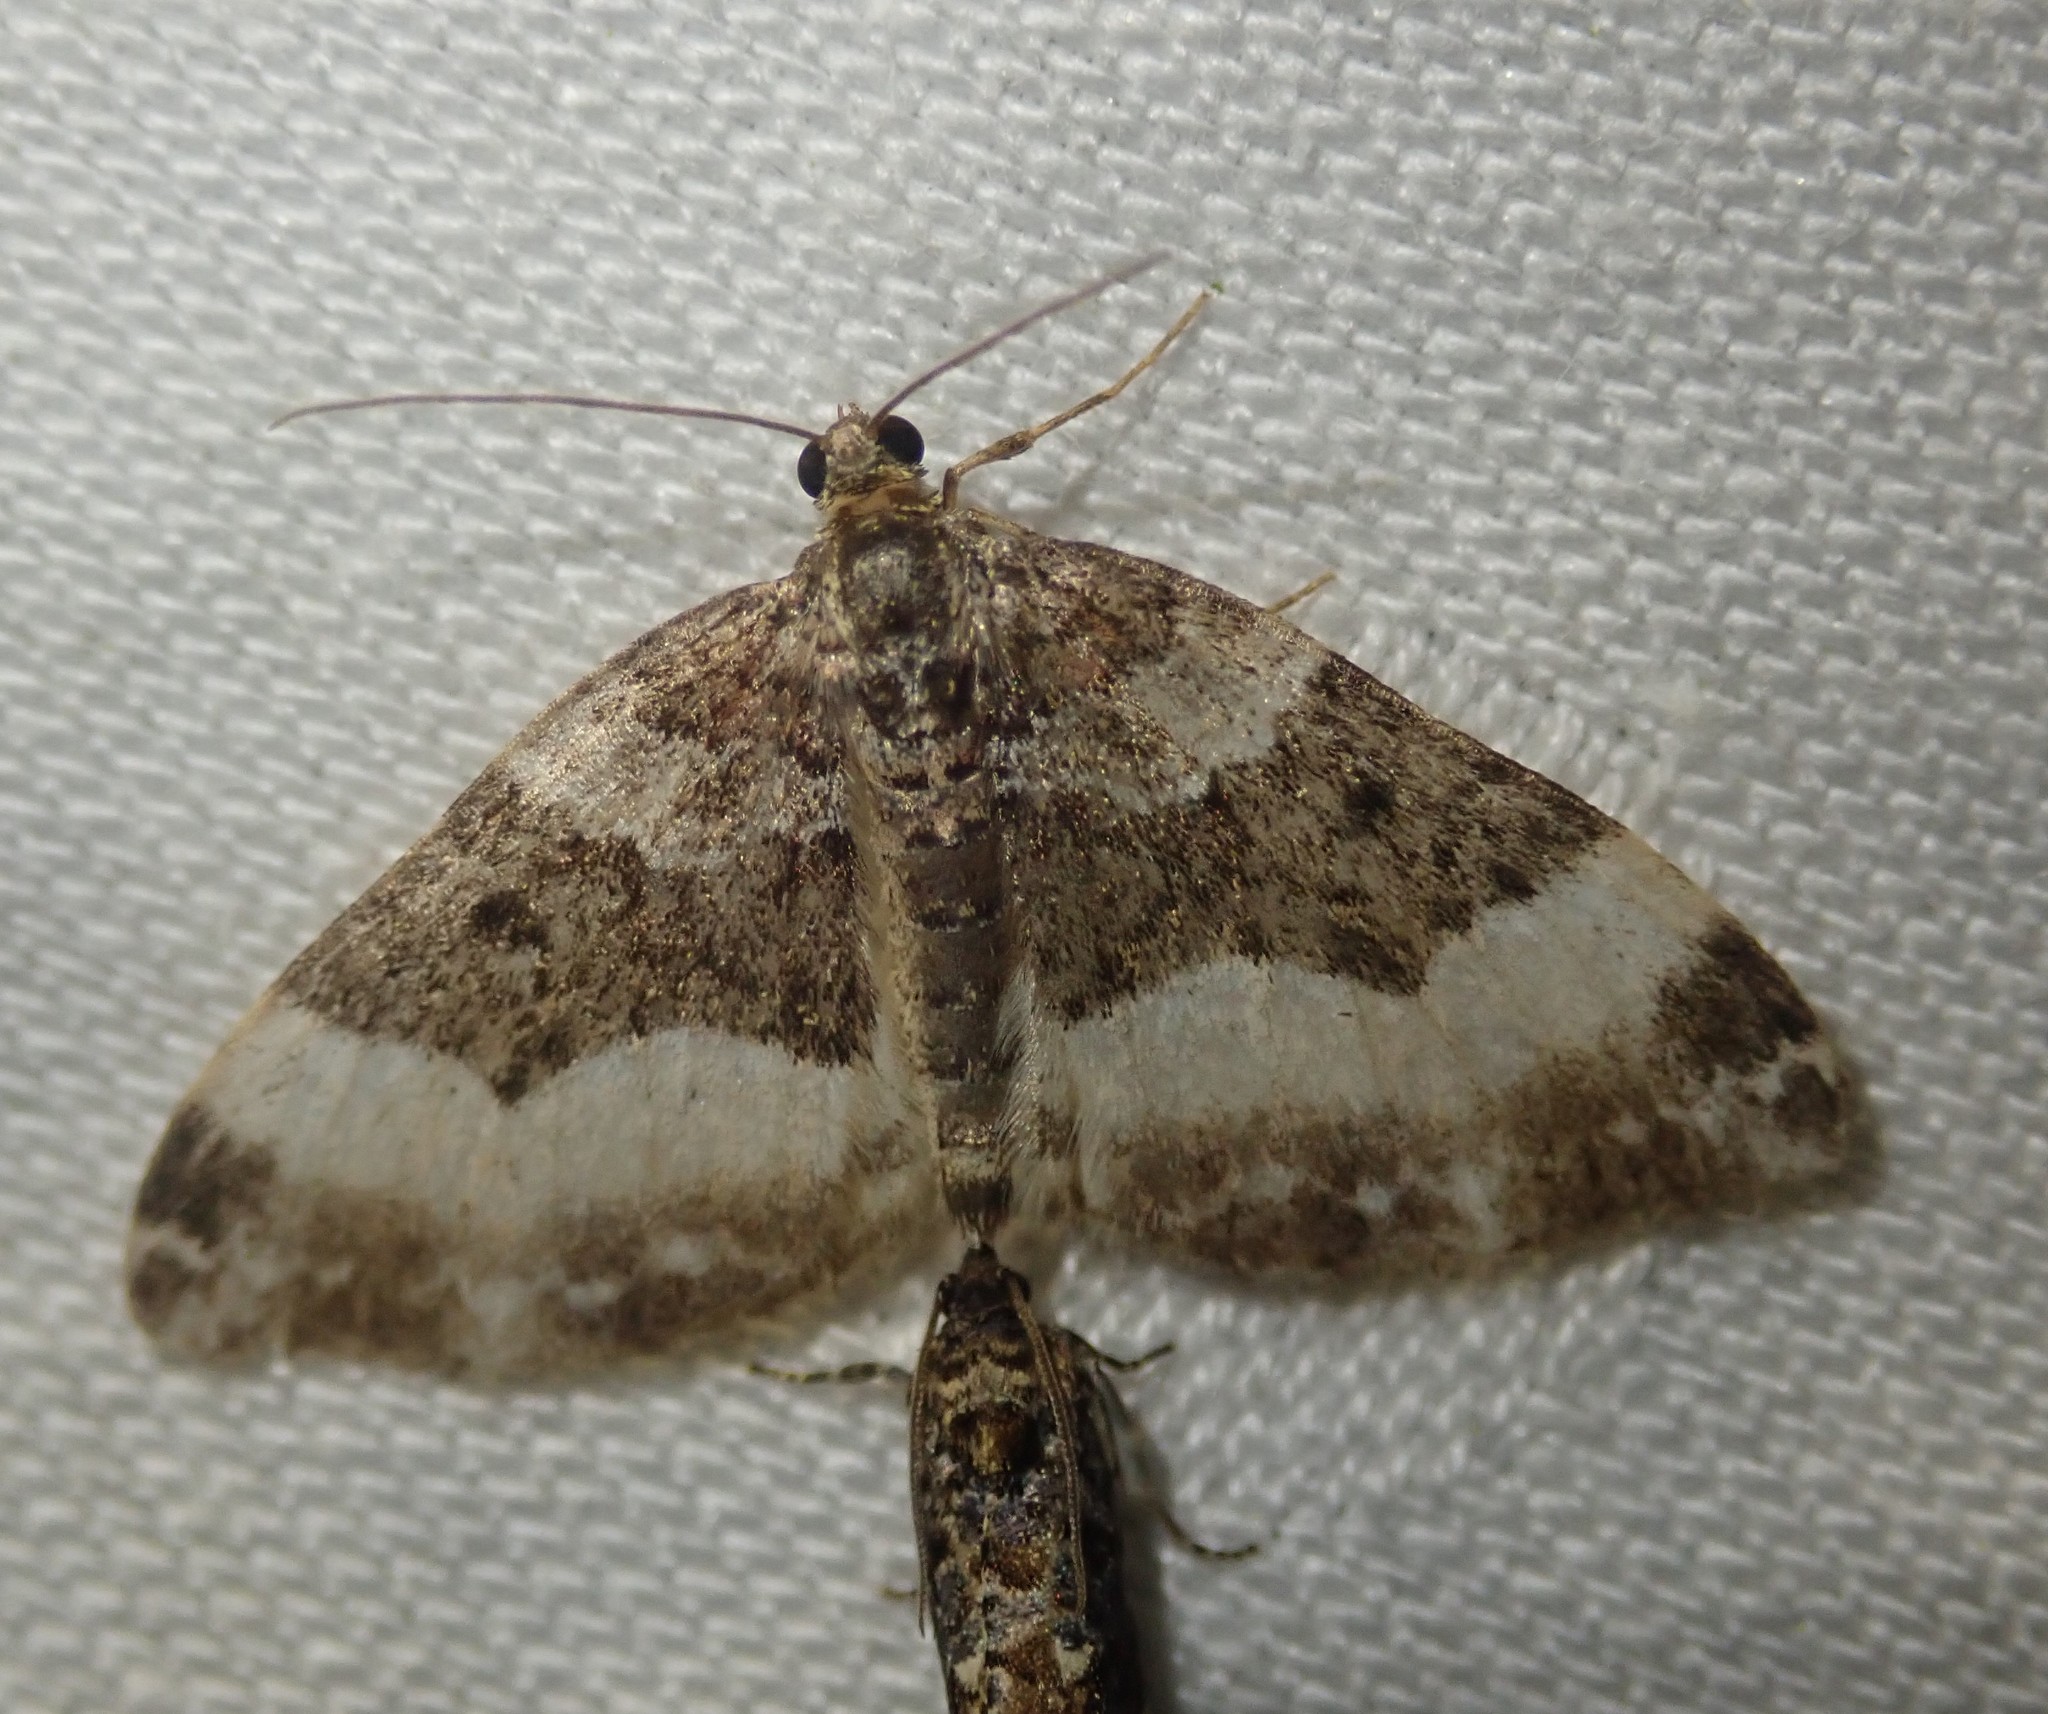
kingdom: Animalia
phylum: Arthropoda
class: Insecta
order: Lepidoptera
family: Geometridae
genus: Euphyia
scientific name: Euphyia unangulata
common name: Sharp-angled carpet
